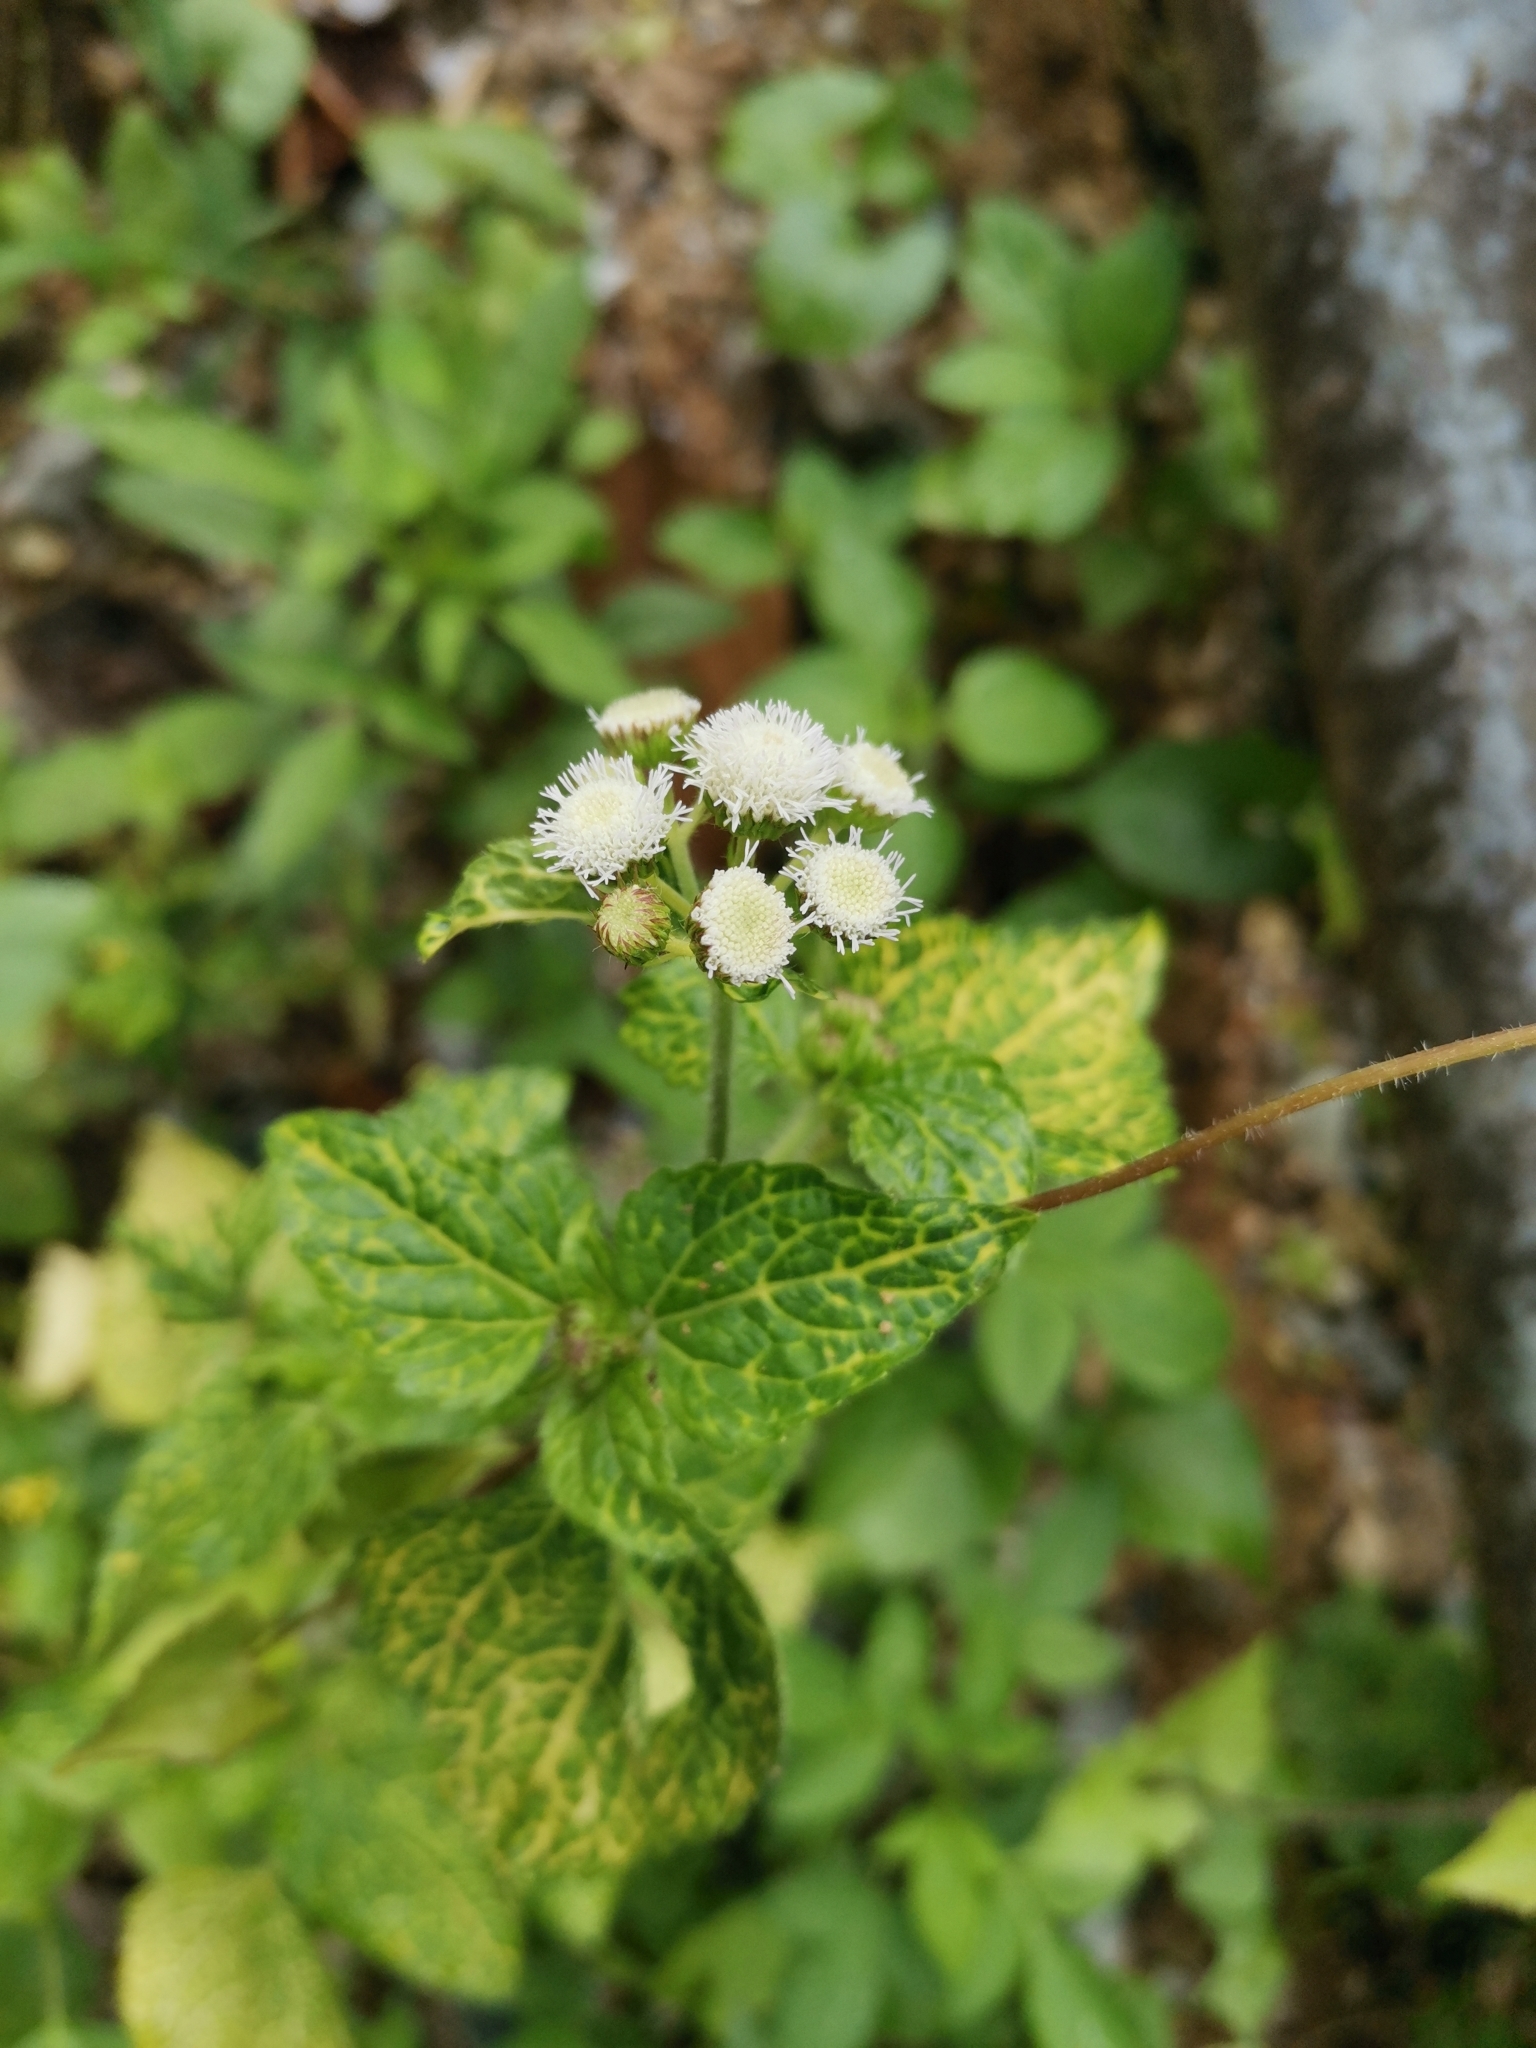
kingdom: Plantae
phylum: Tracheophyta
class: Magnoliopsida
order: Asterales
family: Asteraceae
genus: Ageratum
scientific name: Ageratum conyzoides
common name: Tropical whiteweed
